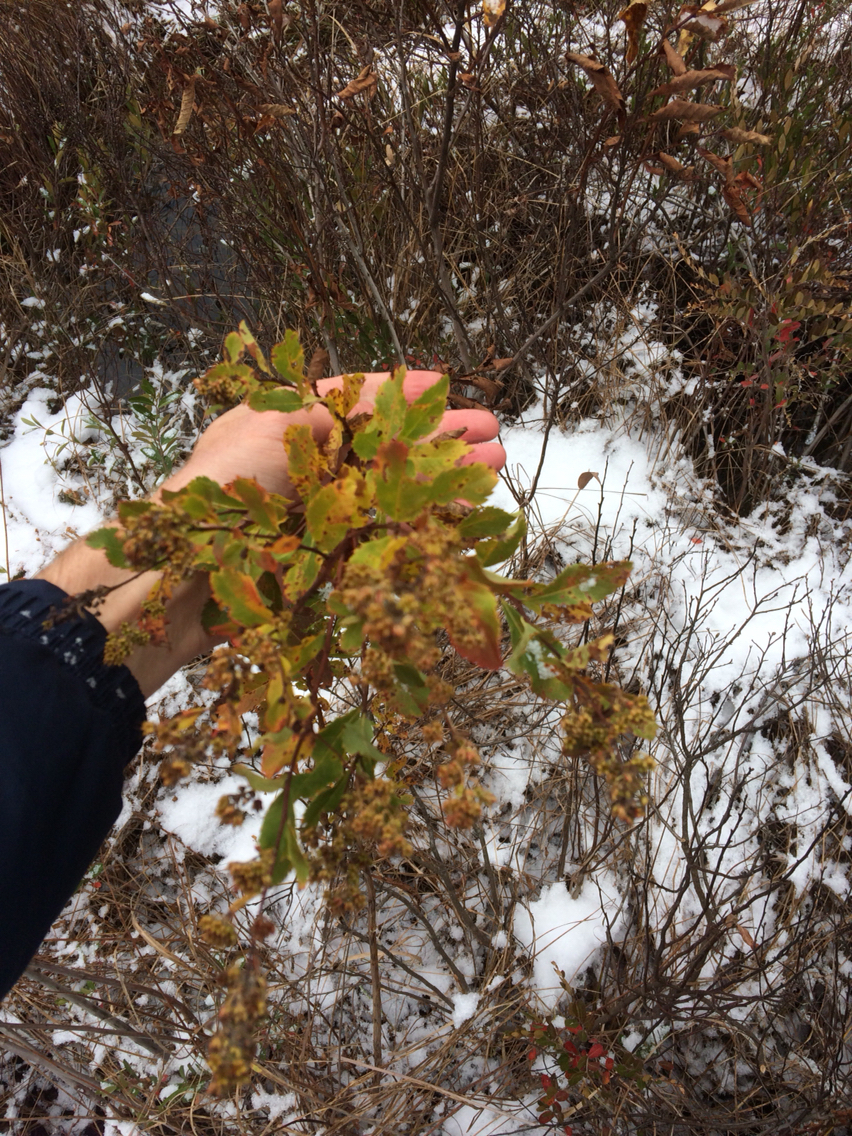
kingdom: Plantae
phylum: Tracheophyta
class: Magnoliopsida
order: Rosales
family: Rosaceae
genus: Spiraea
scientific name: Spiraea alba
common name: Pale bridewort
